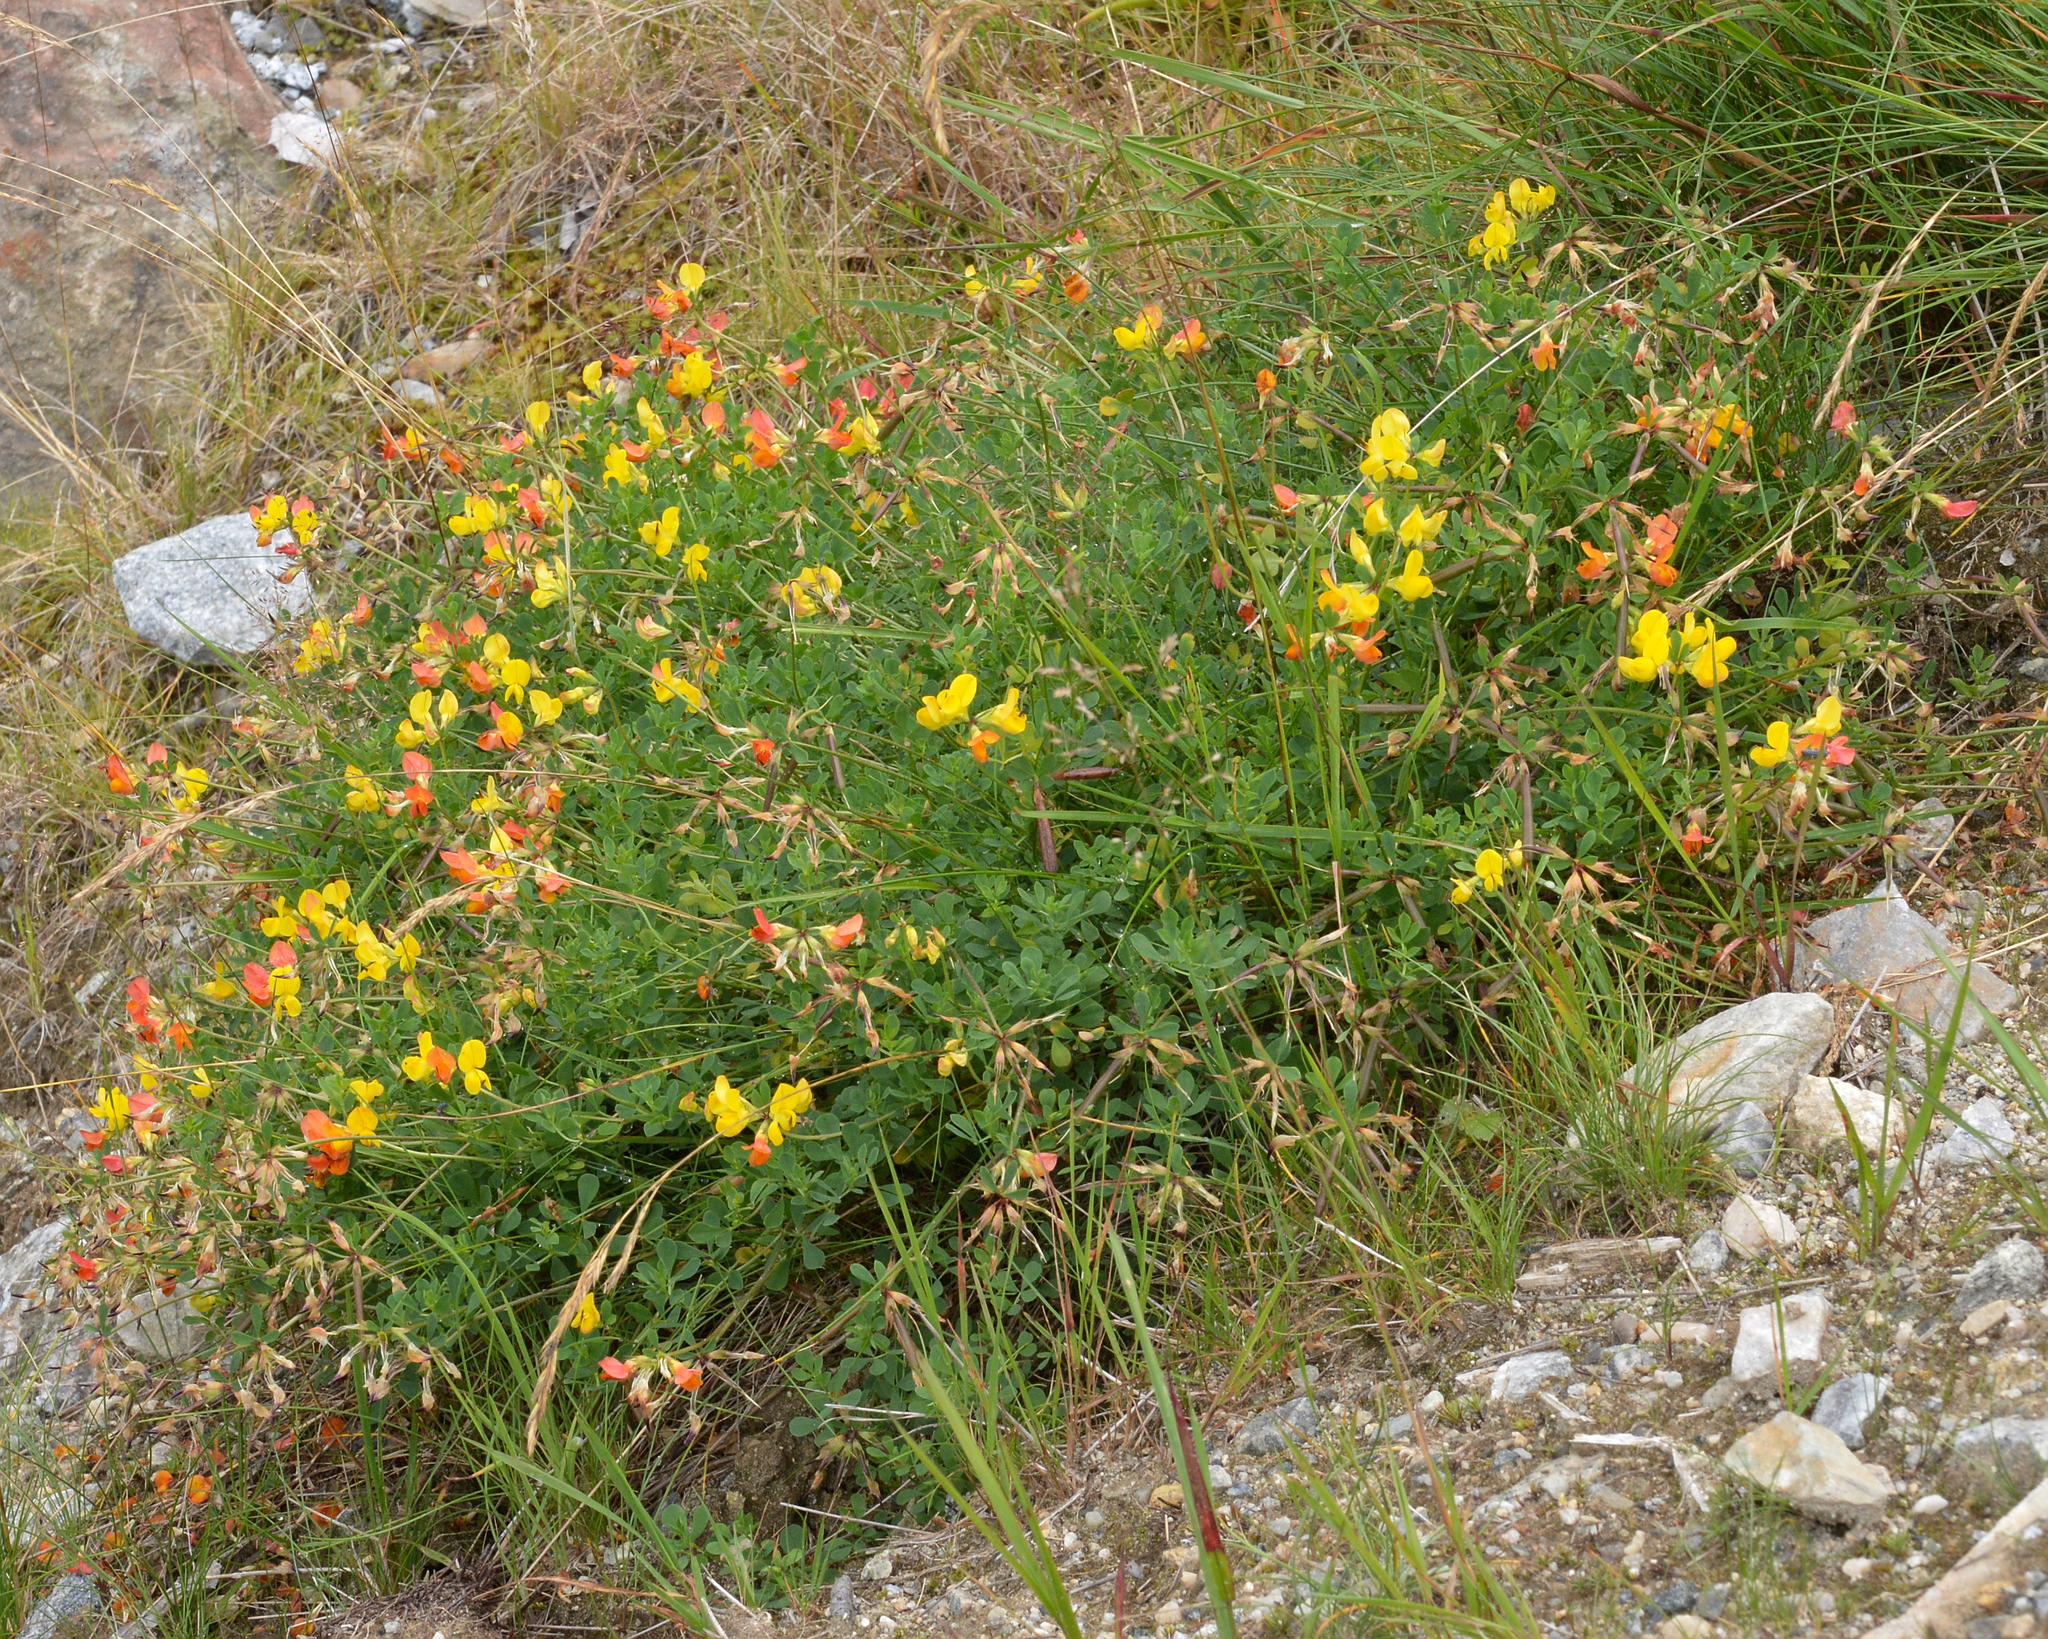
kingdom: Plantae
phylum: Tracheophyta
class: Magnoliopsida
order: Fabales
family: Fabaceae
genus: Lotus
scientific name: Lotus corniculatus
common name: Common bird's-foot-trefoil
